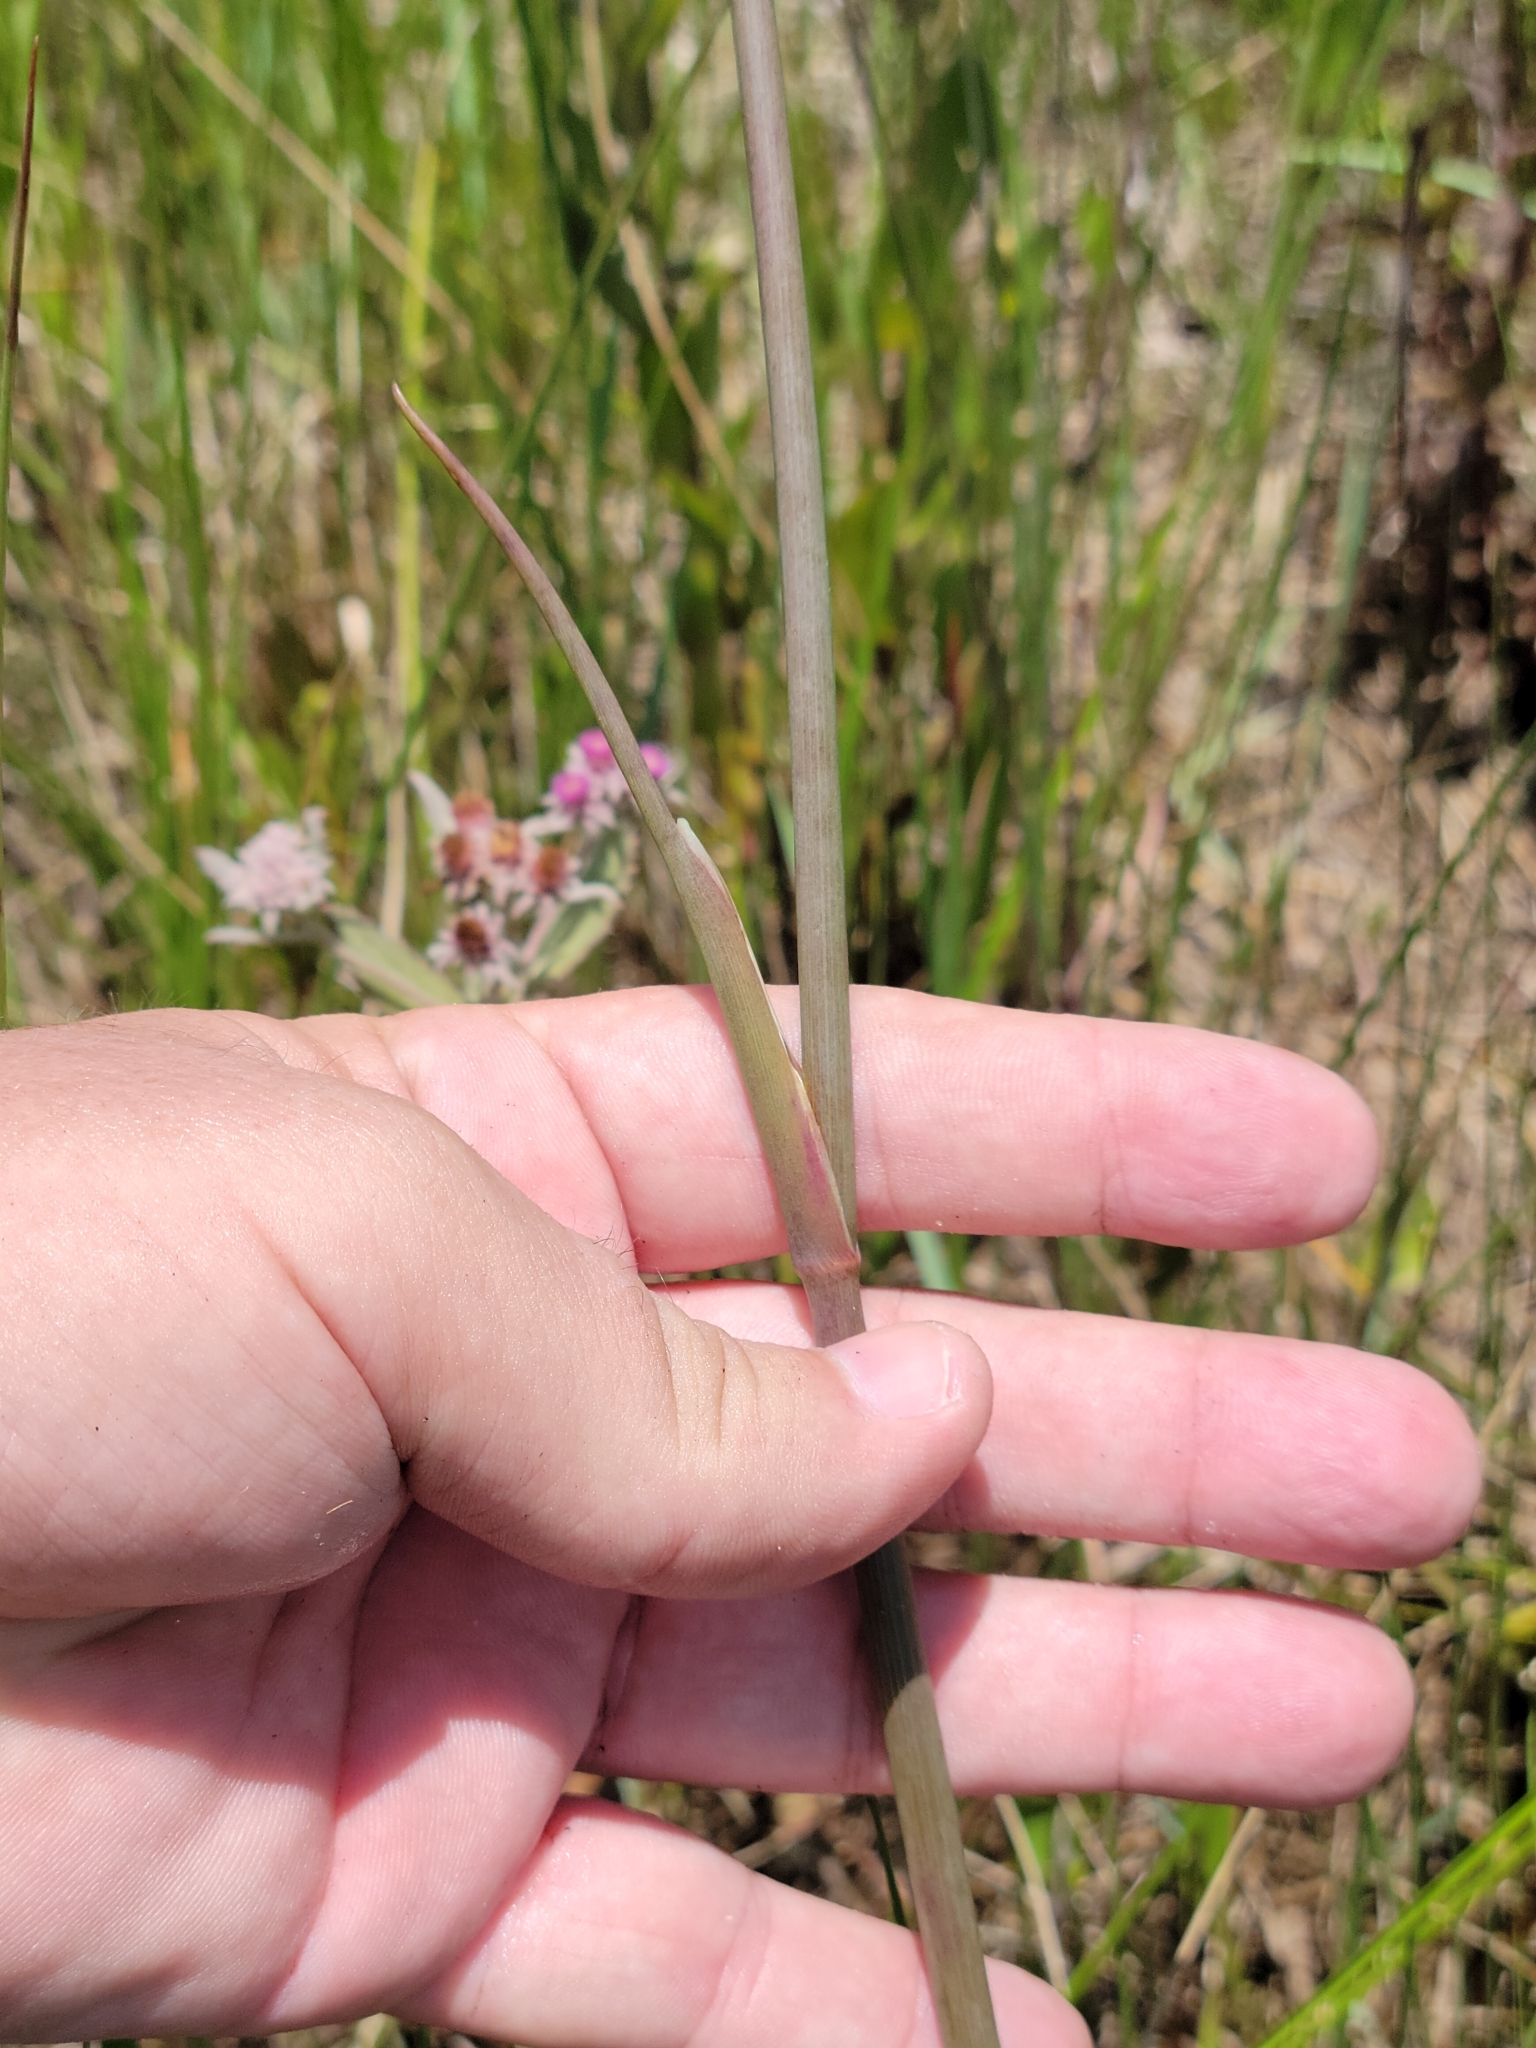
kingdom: Plantae
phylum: Tracheophyta
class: Magnoliopsida
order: Apiales
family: Apiaceae
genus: Tiedemannia
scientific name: Tiedemannia filiformis
